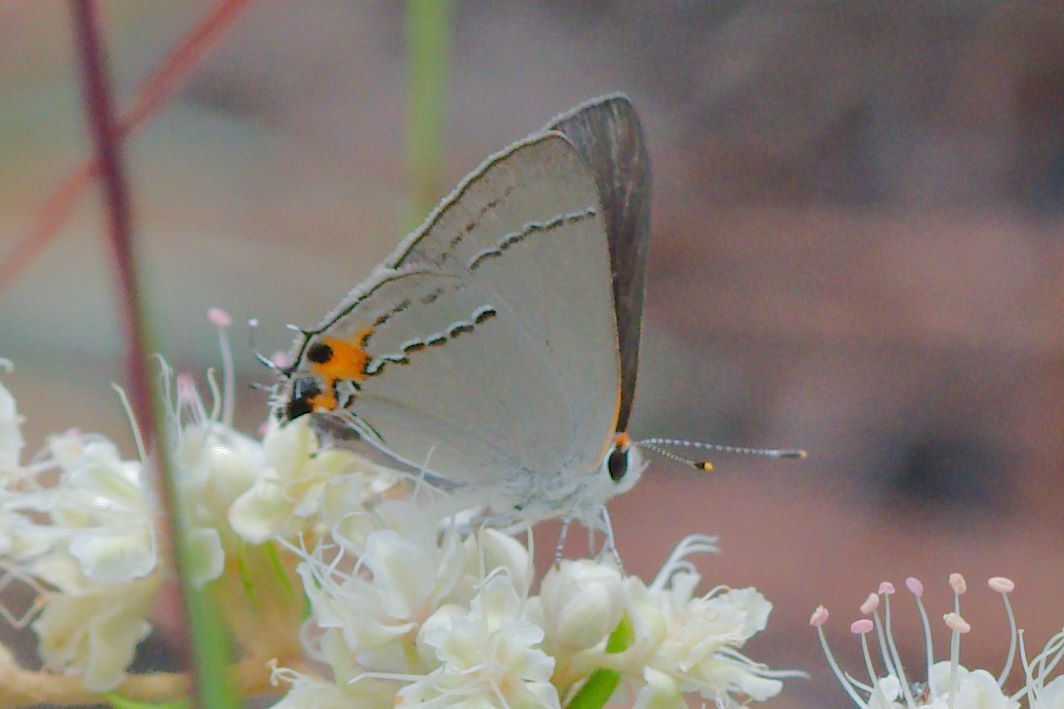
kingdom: Animalia
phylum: Arthropoda
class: Insecta
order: Lepidoptera
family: Lycaenidae
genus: Strymon
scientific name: Strymon melinus
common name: Gray hairstreak
